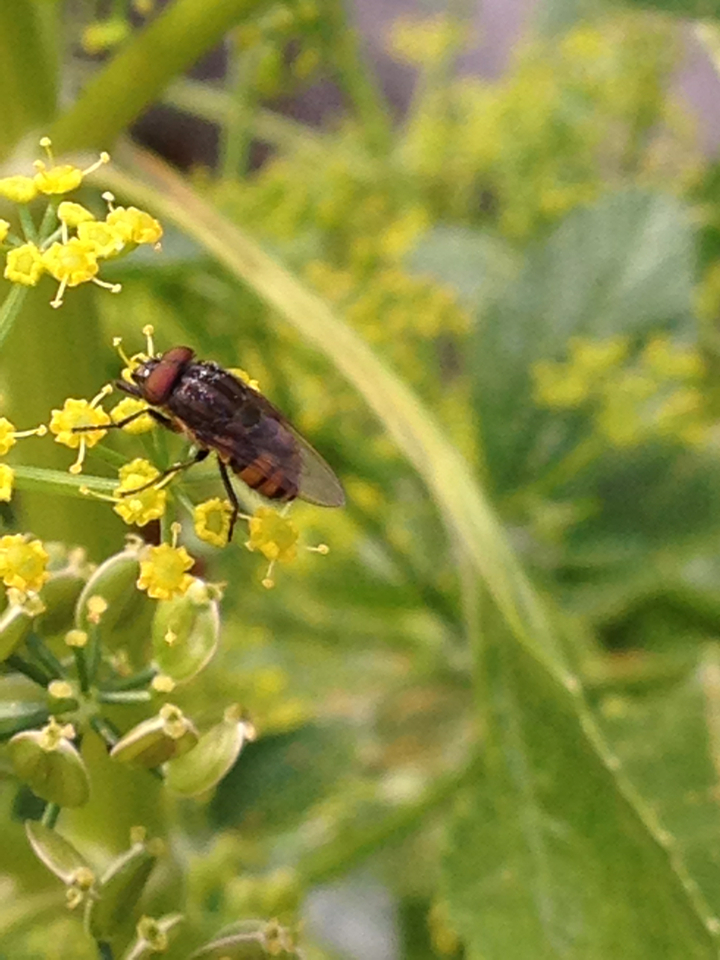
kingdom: Animalia
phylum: Arthropoda
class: Insecta
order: Diptera
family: Calliphoridae
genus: Stomorhina
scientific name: Stomorhina lunata
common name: Locust blowfly
